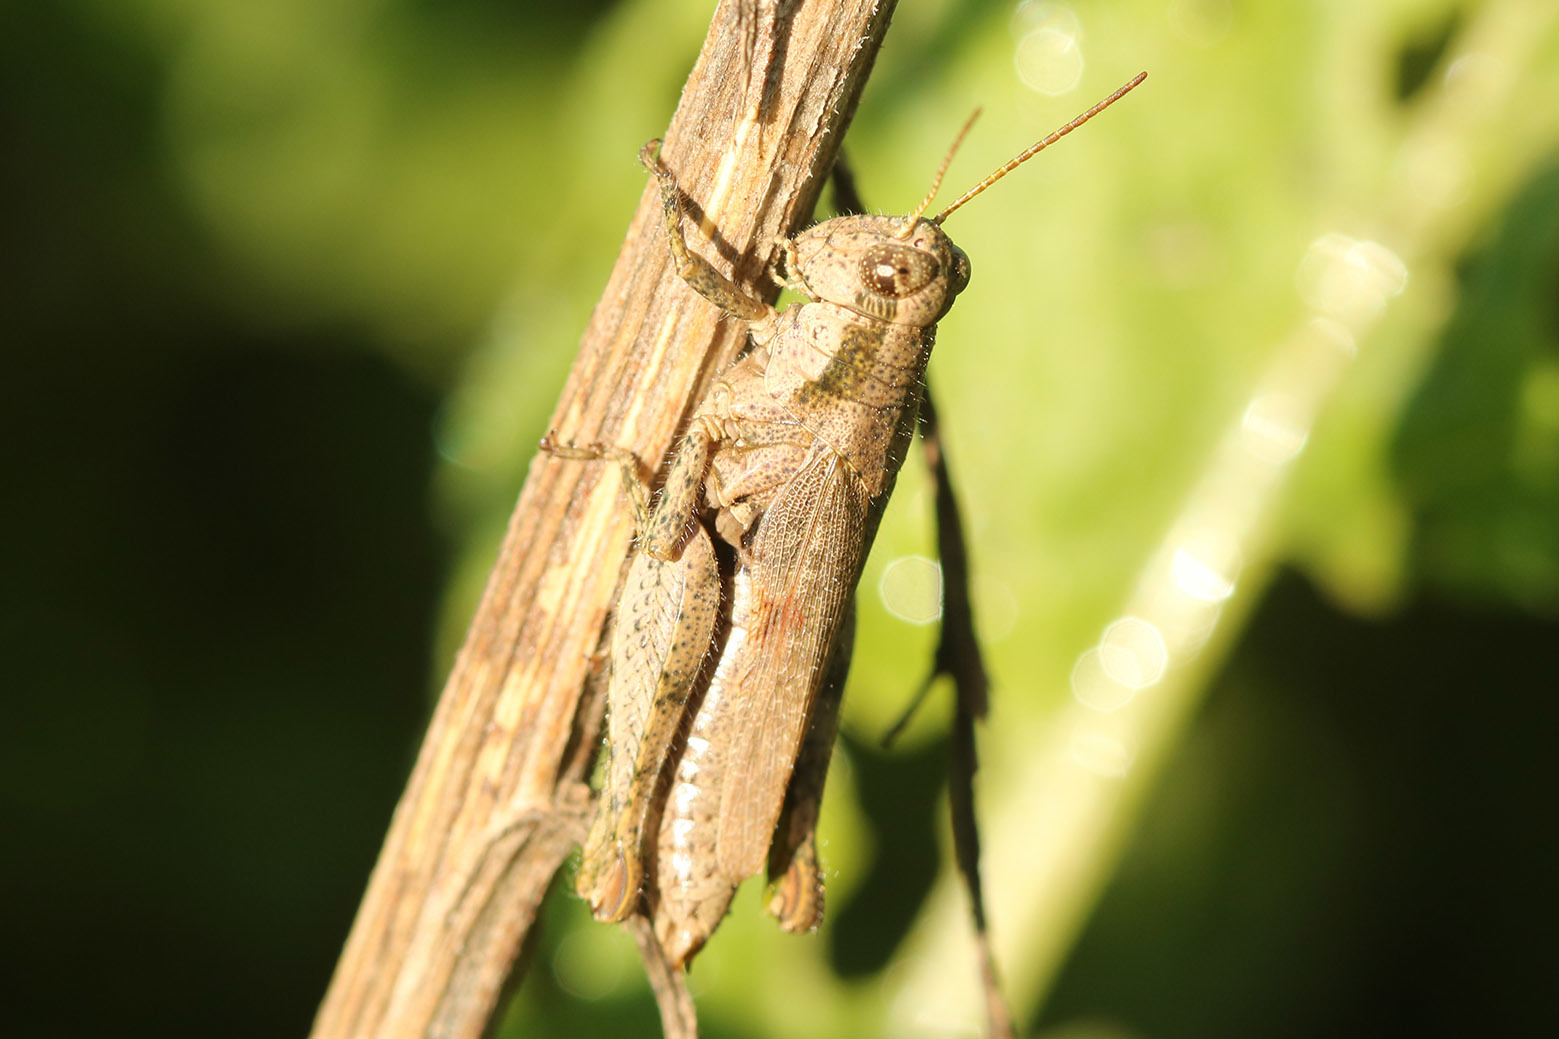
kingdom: Animalia
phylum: Arthropoda
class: Insecta
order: Orthoptera
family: Acrididae
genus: Ronderosia
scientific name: Ronderosia bergii
